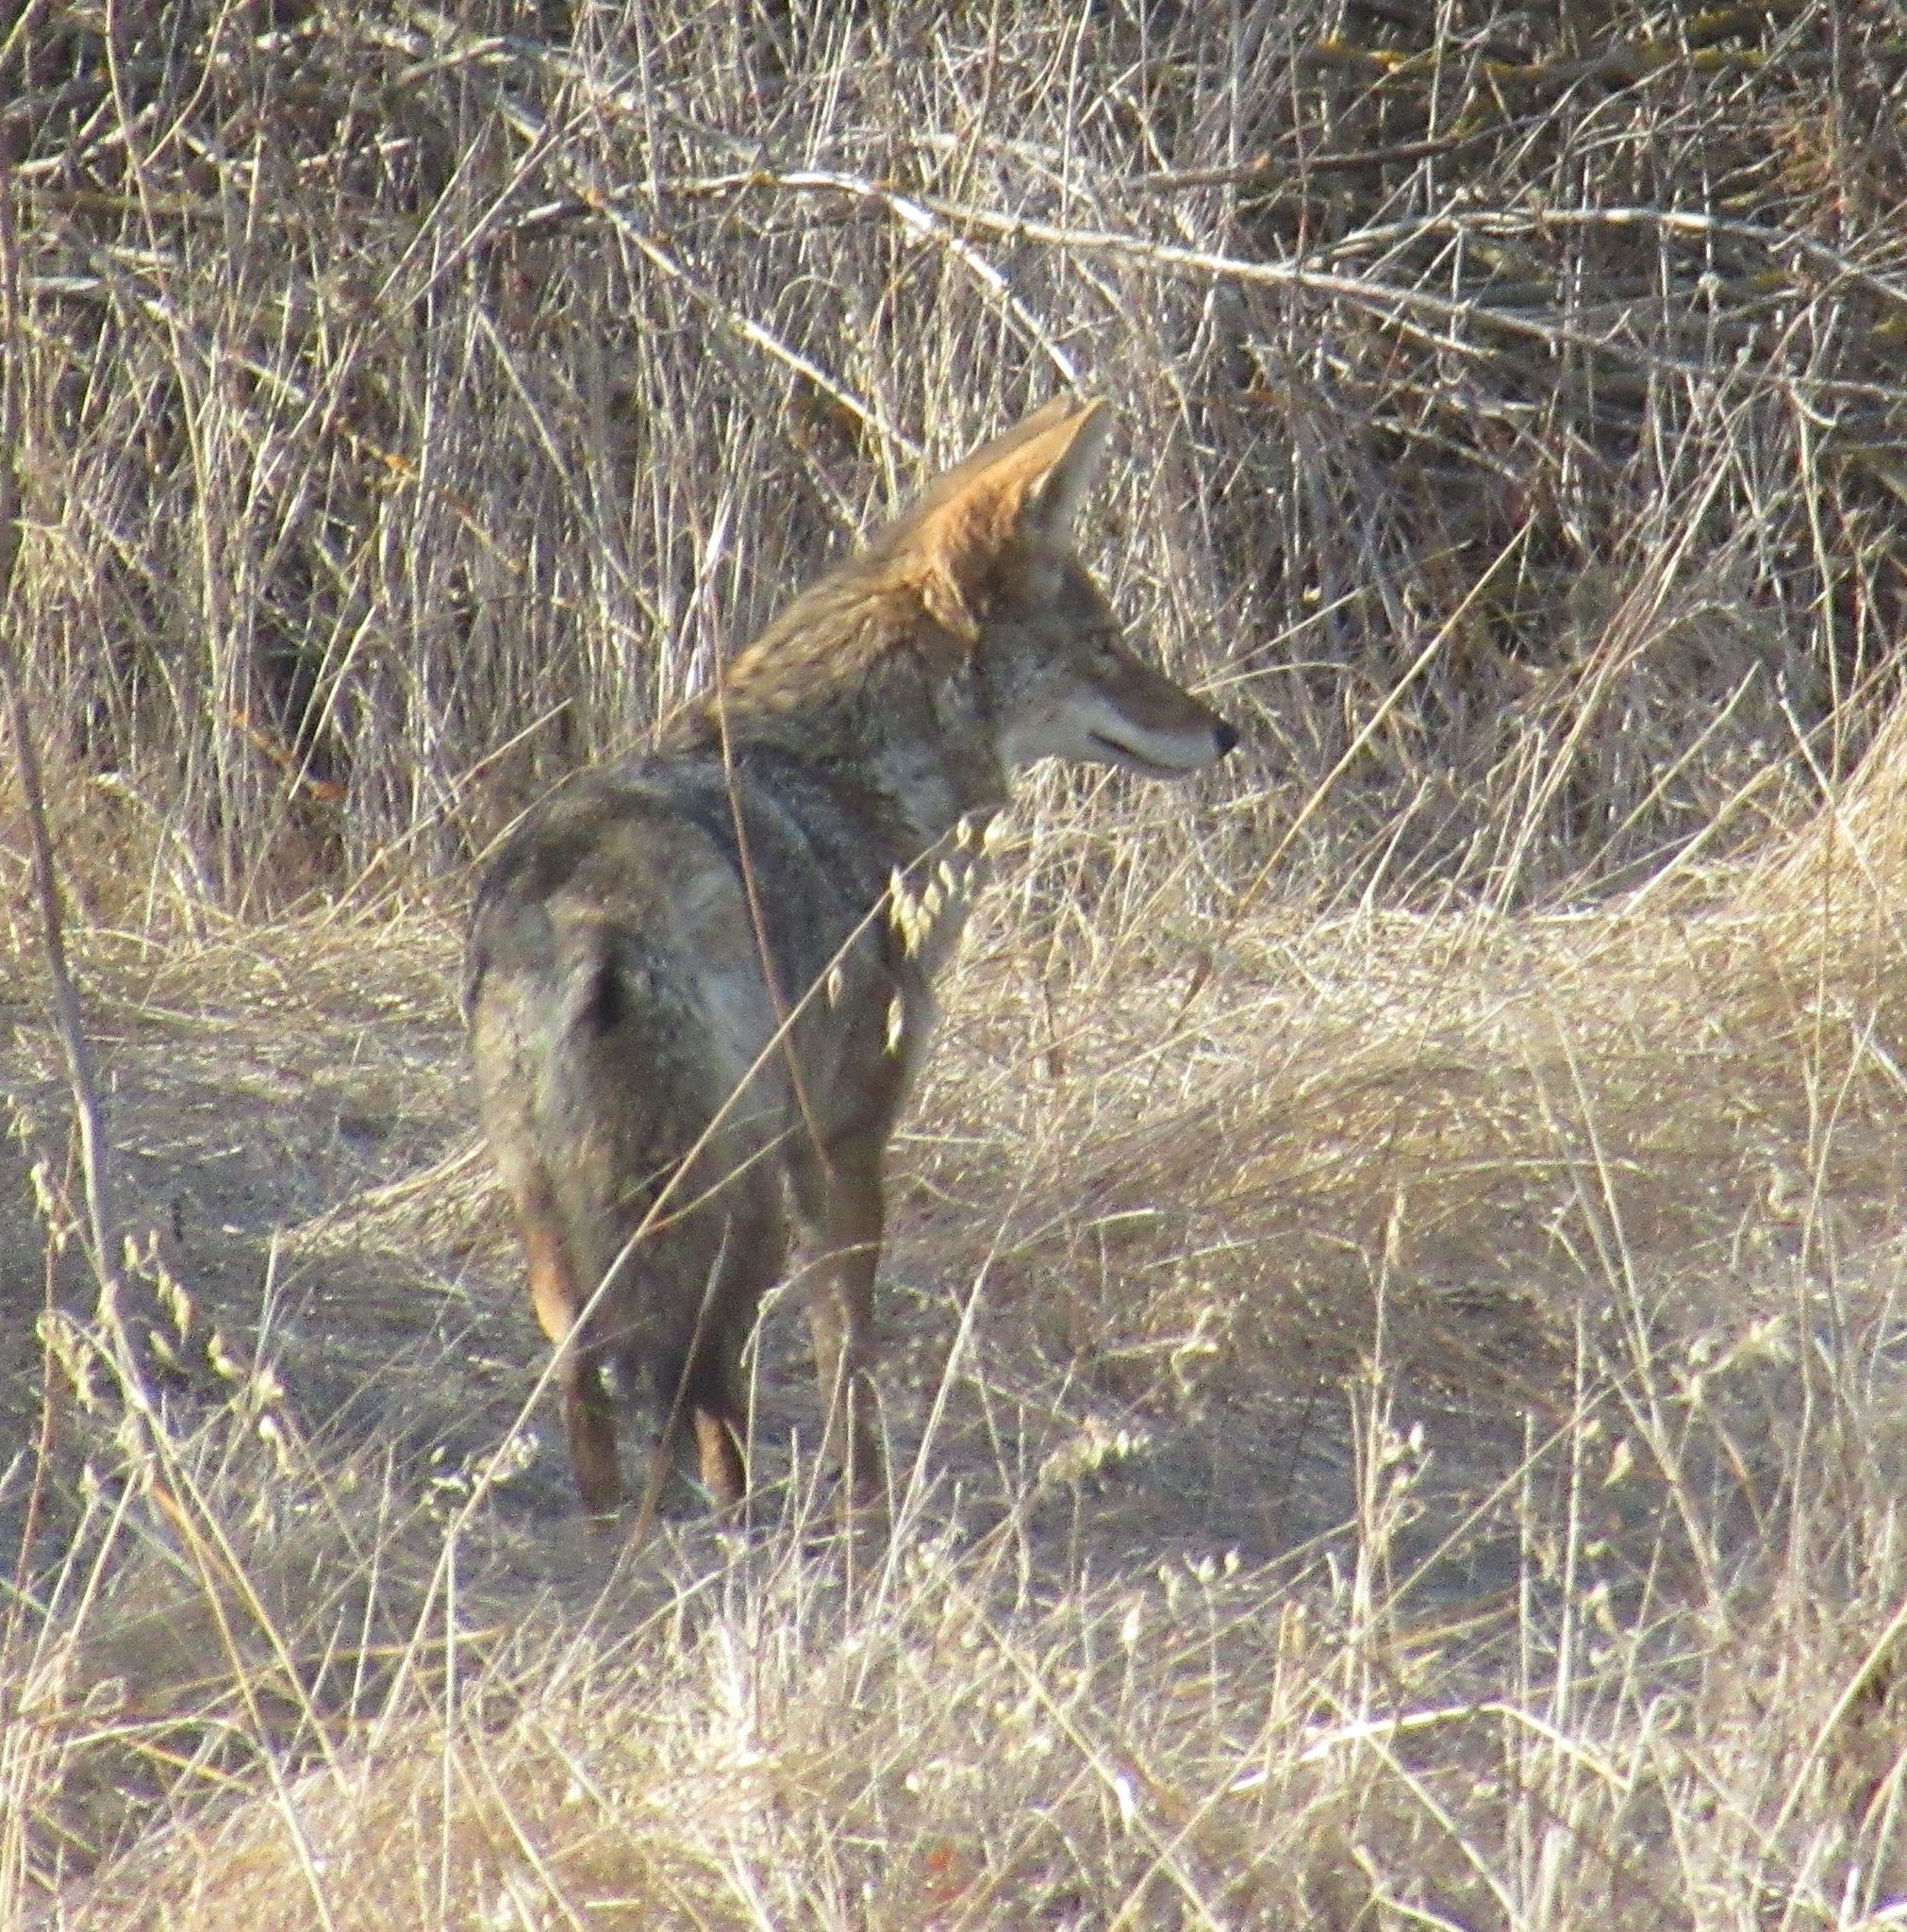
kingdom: Animalia
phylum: Chordata
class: Mammalia
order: Carnivora
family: Canidae
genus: Canis
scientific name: Canis latrans
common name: Coyote
